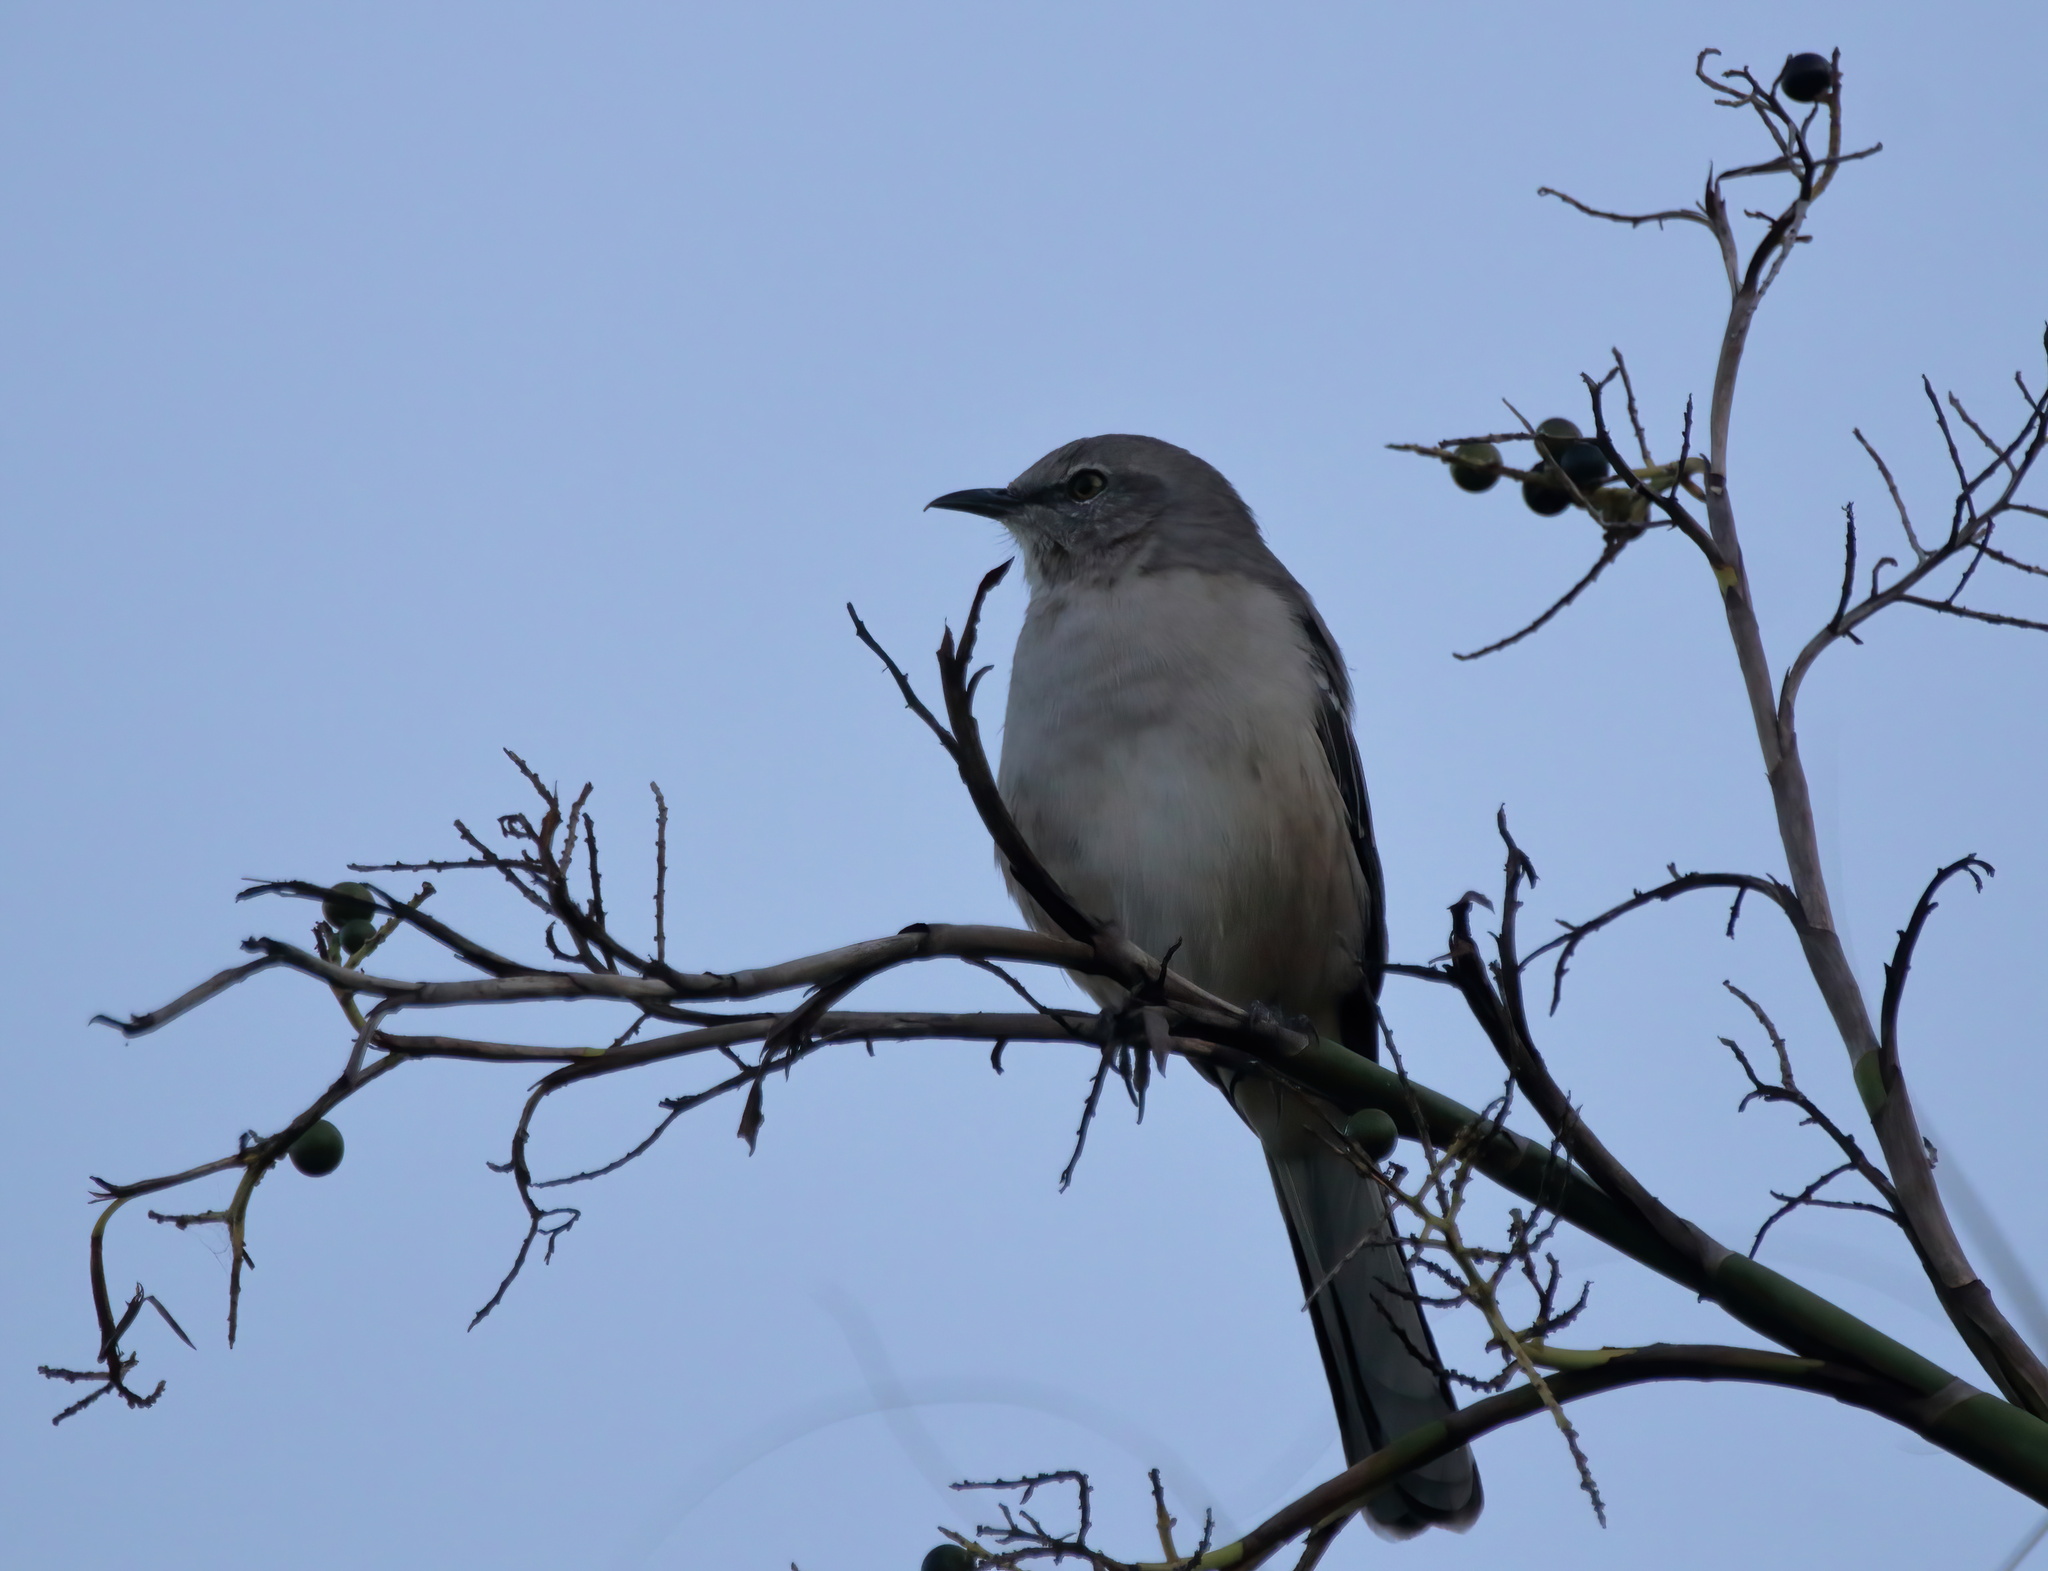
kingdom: Animalia
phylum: Chordata
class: Aves
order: Passeriformes
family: Mimidae
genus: Mimus
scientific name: Mimus polyglottos
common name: Northern mockingbird
